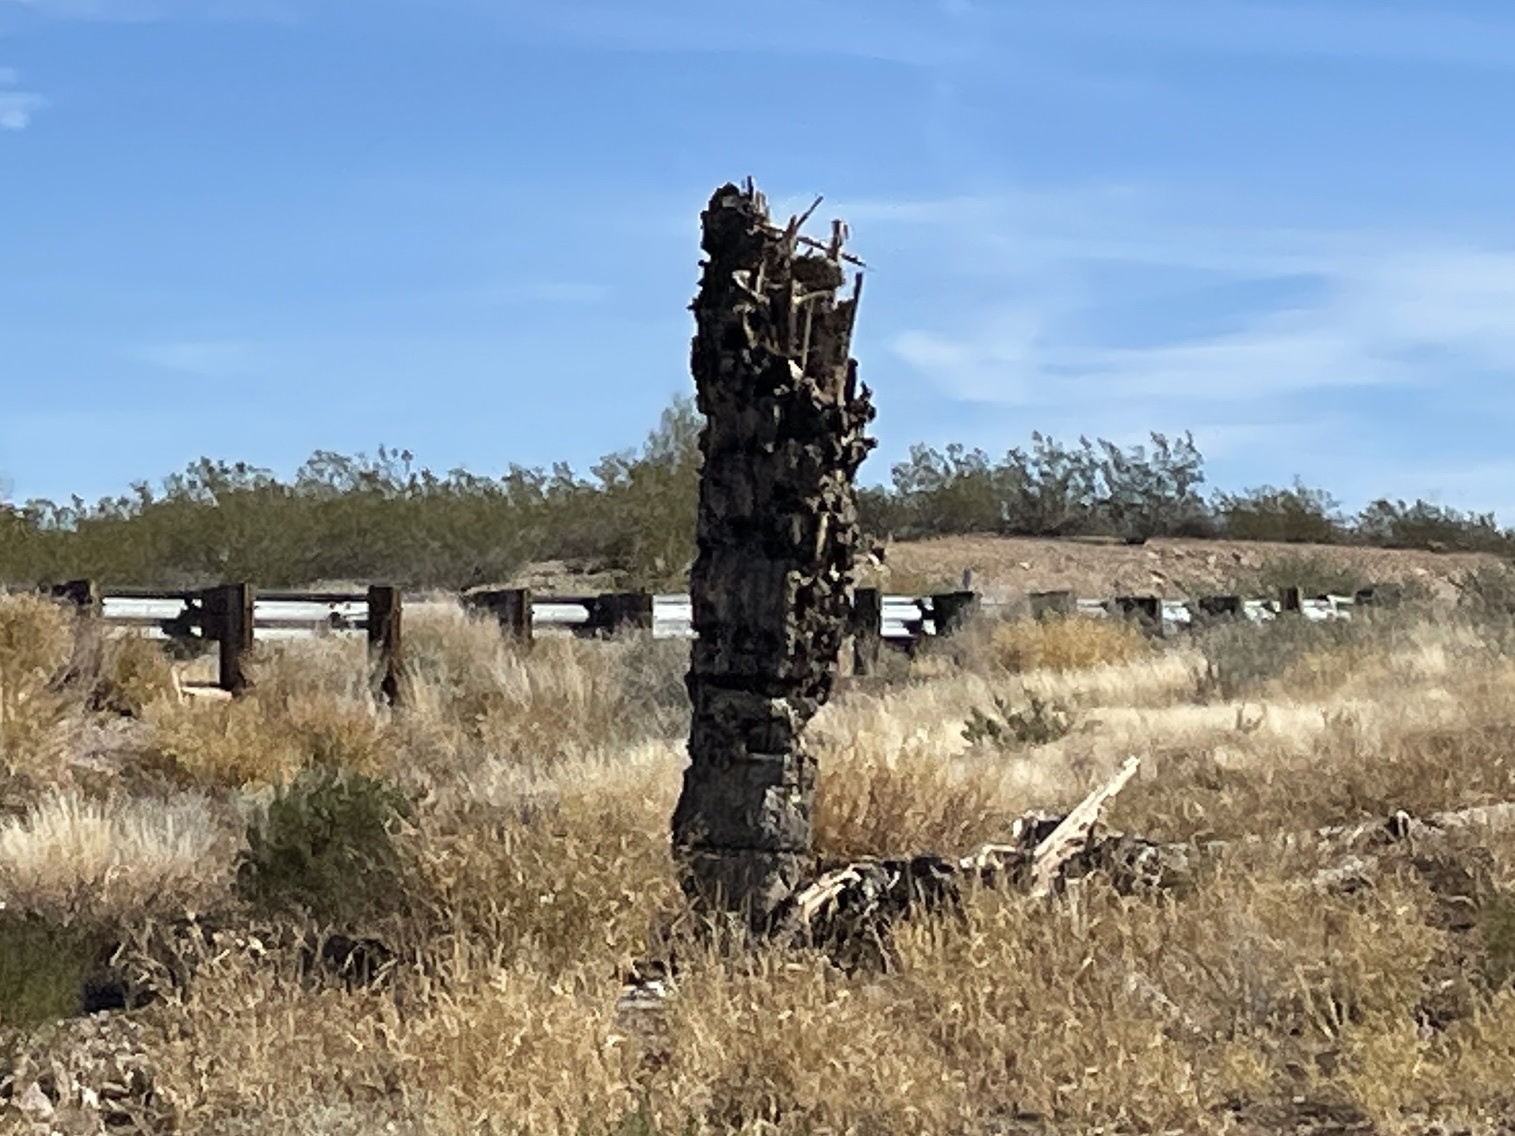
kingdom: Plantae
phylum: Tracheophyta
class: Magnoliopsida
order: Caryophyllales
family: Cactaceae
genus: Carnegiea
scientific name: Carnegiea gigantea
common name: Saguaro
